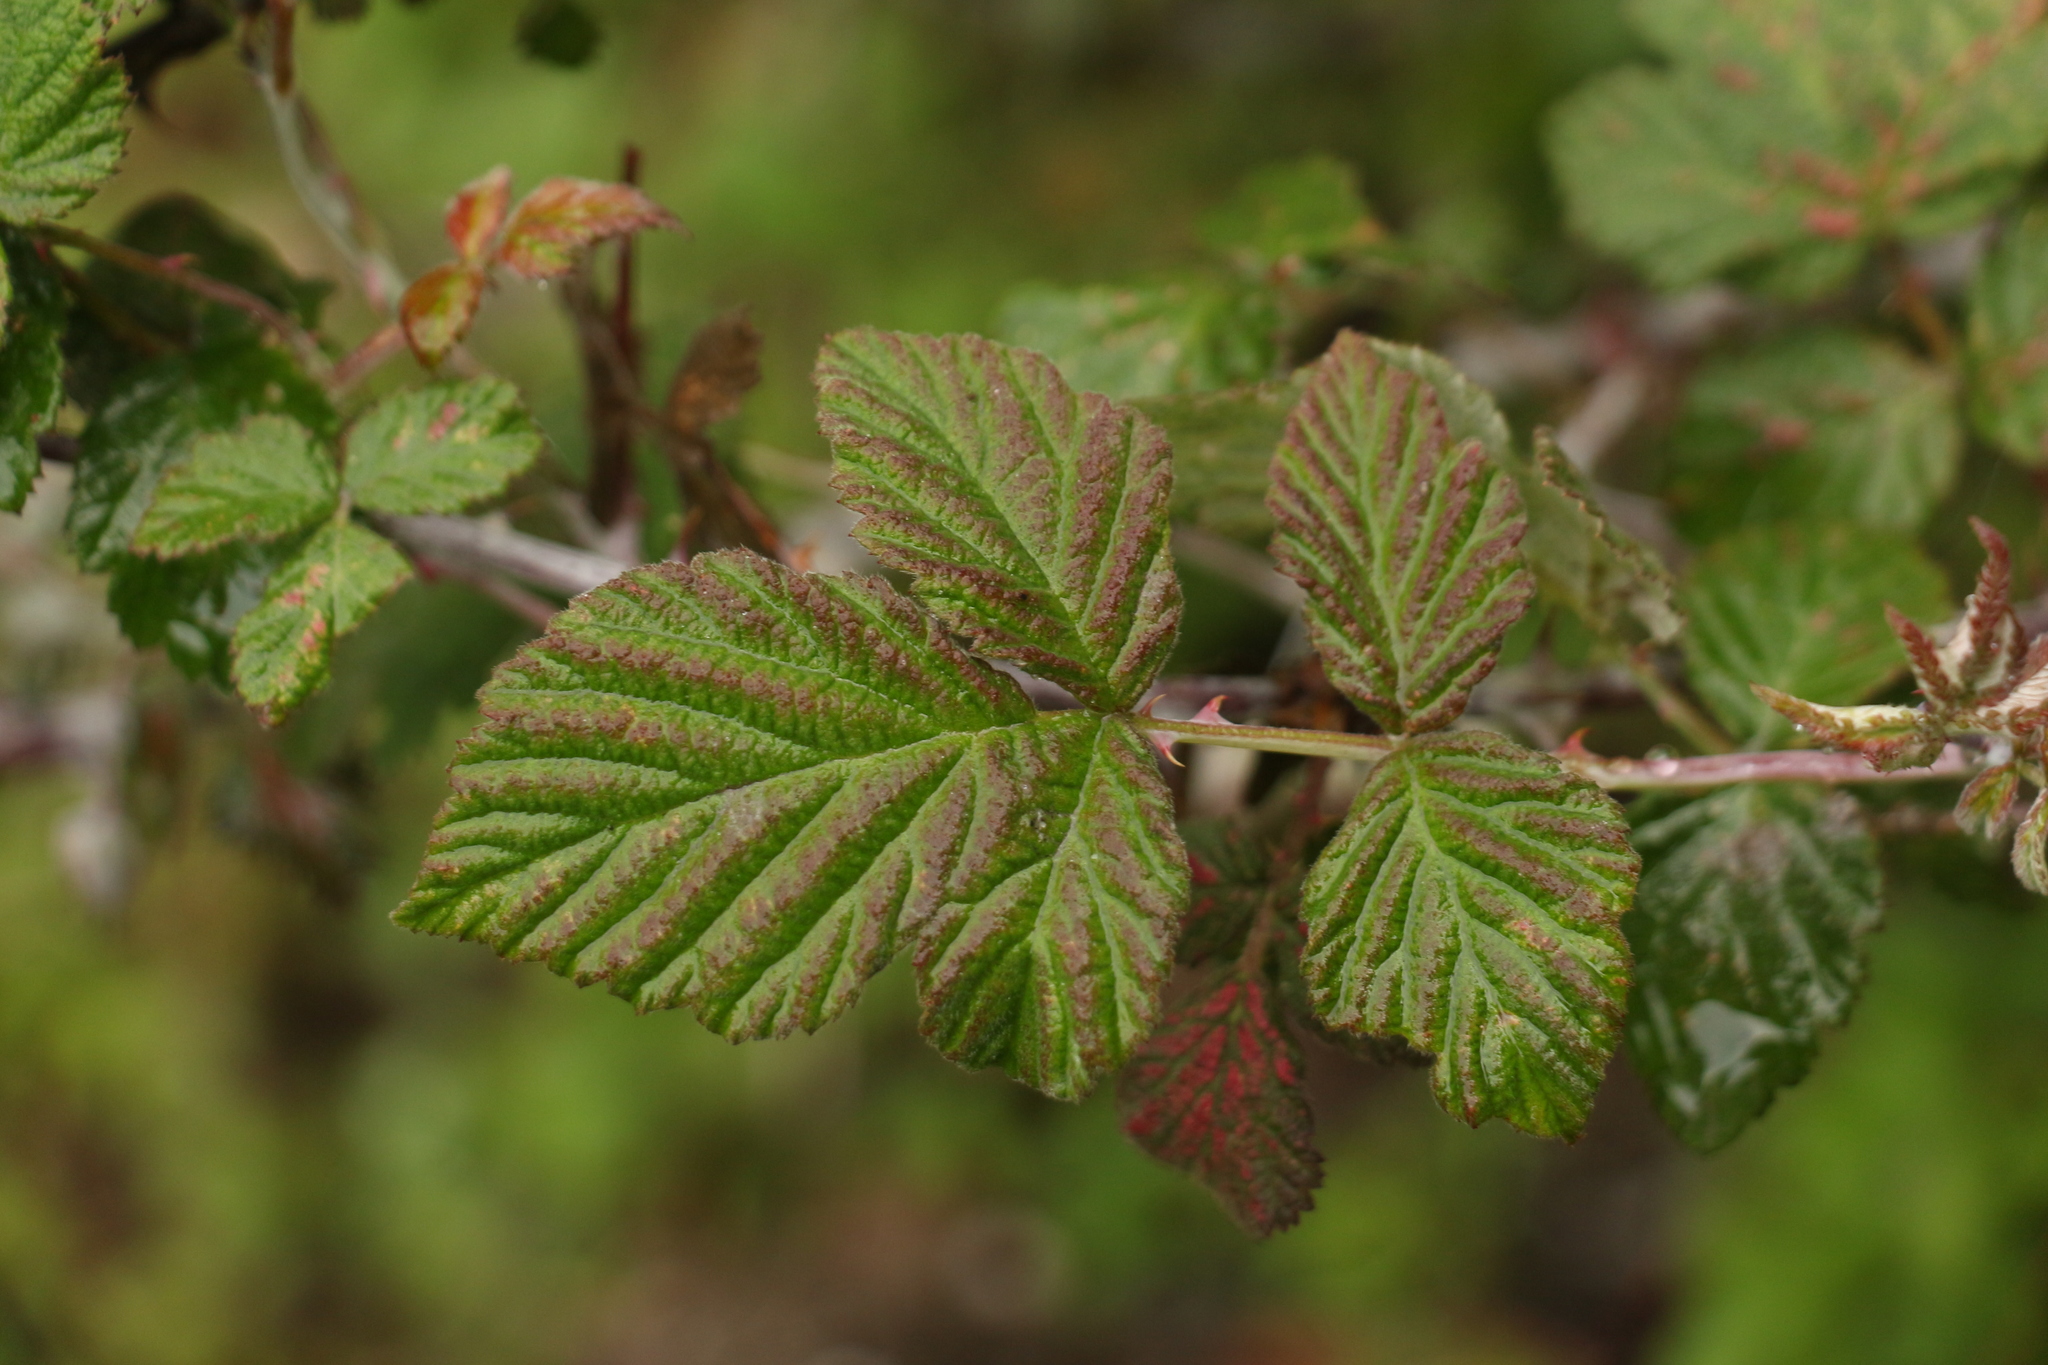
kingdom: Plantae
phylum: Tracheophyta
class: Magnoliopsida
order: Rosales
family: Rosaceae
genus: Rubus
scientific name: Rubus biflorus
